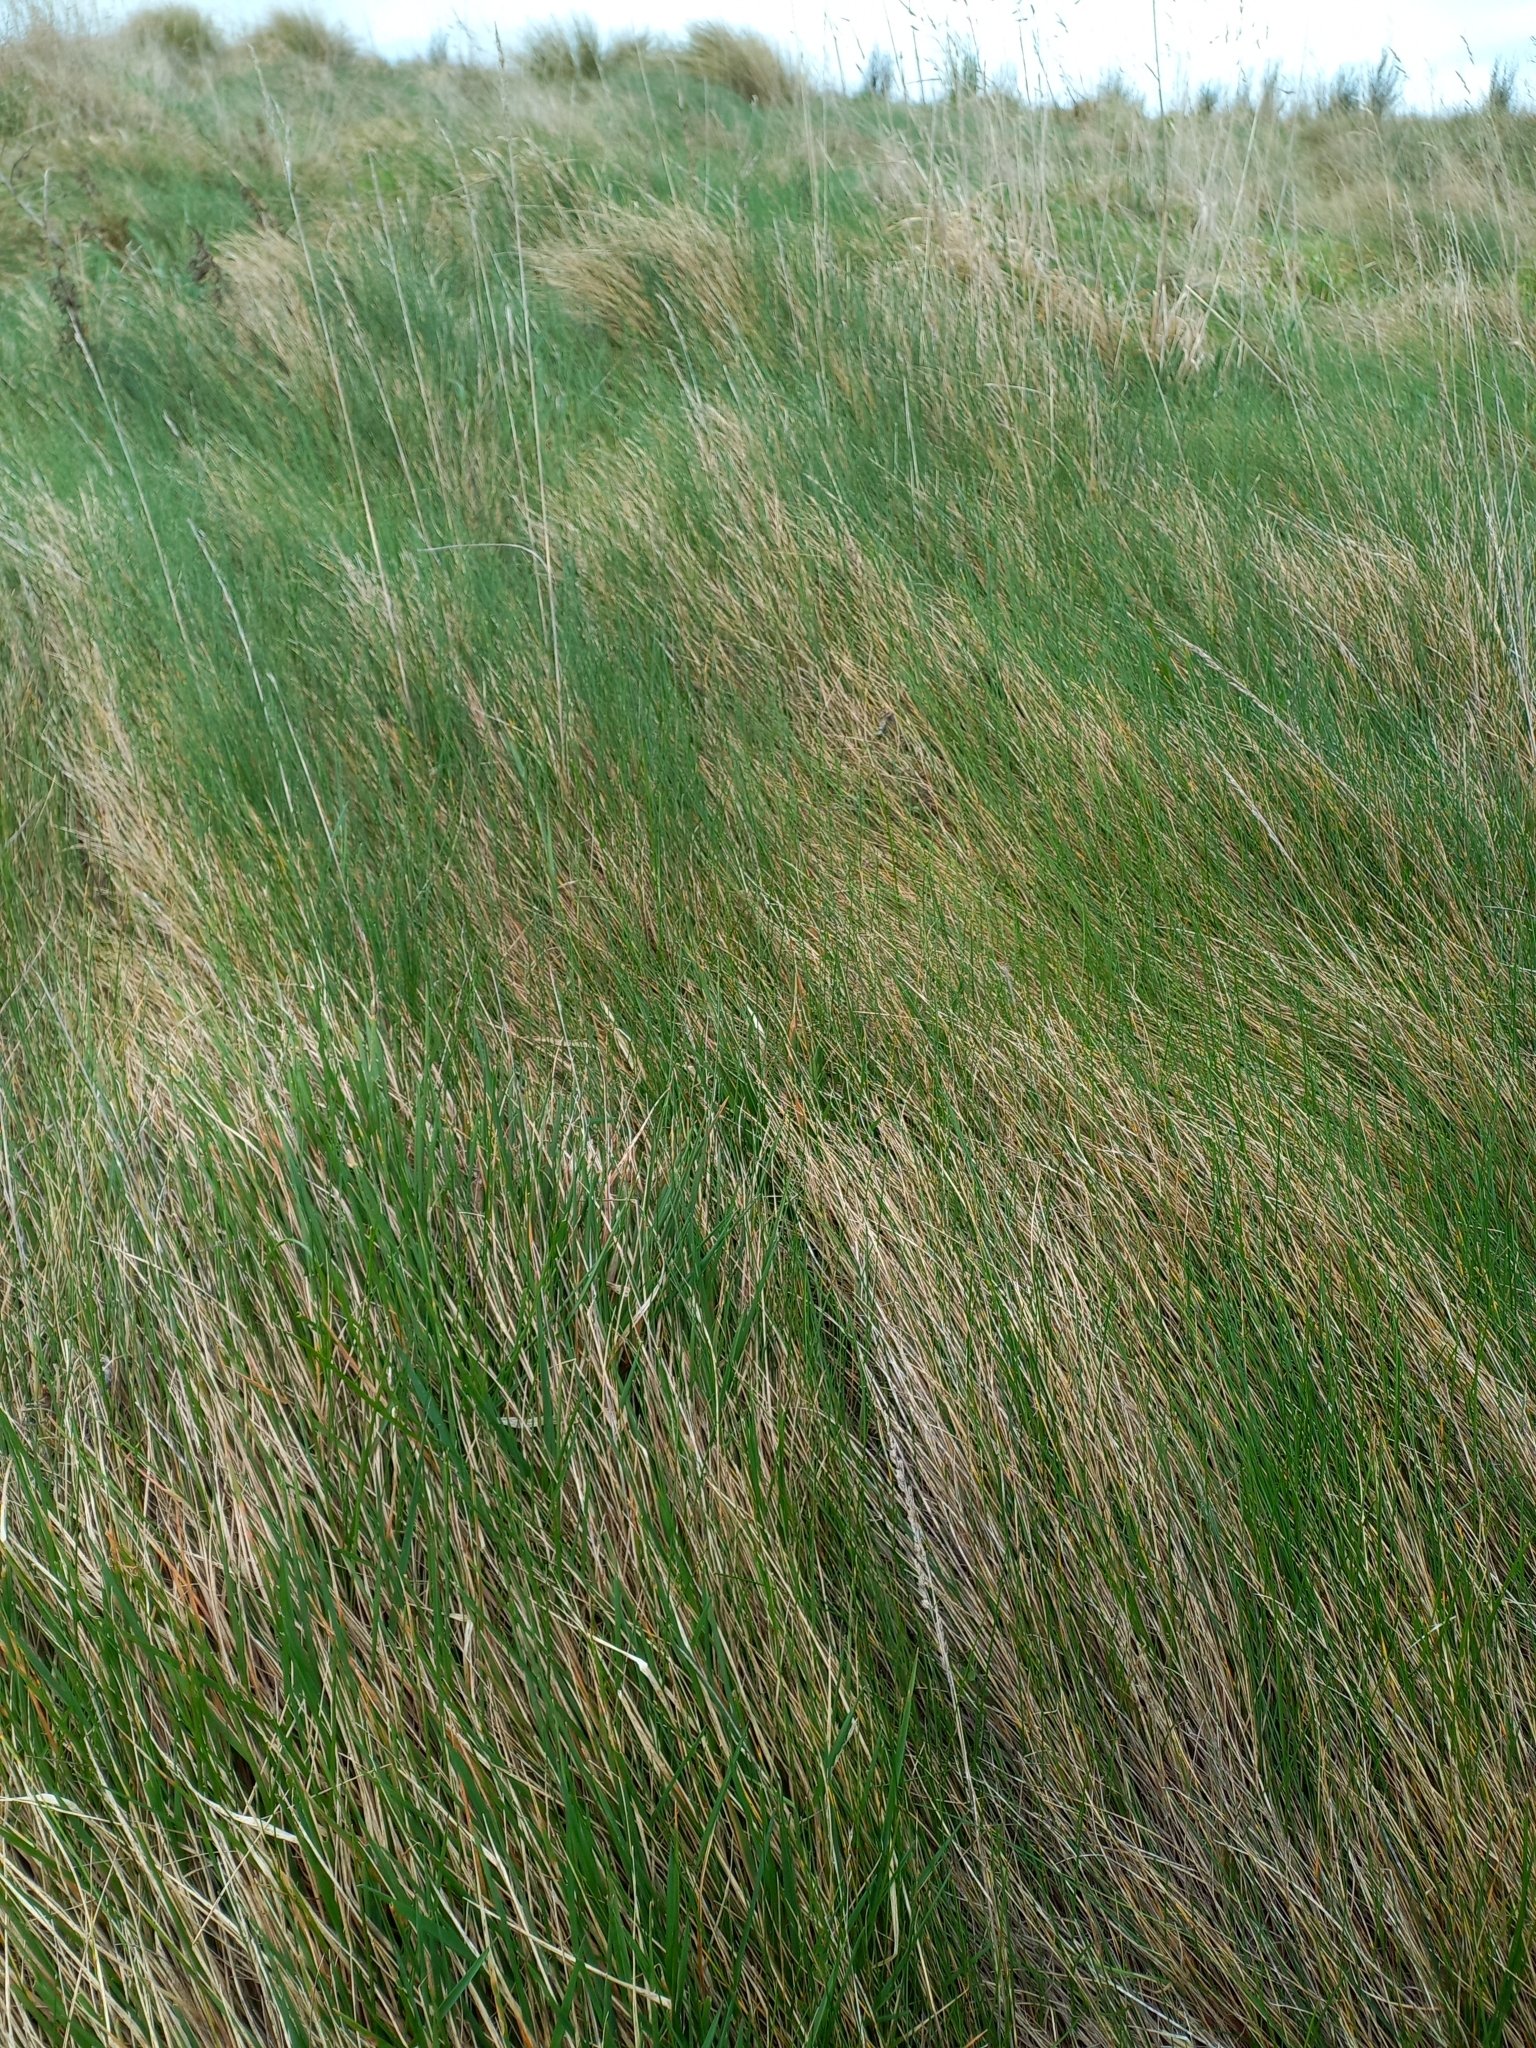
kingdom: Plantae
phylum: Tracheophyta
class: Liliopsida
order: Poales
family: Poaceae
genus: Festuca
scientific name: Festuca rubra
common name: Red fescue
